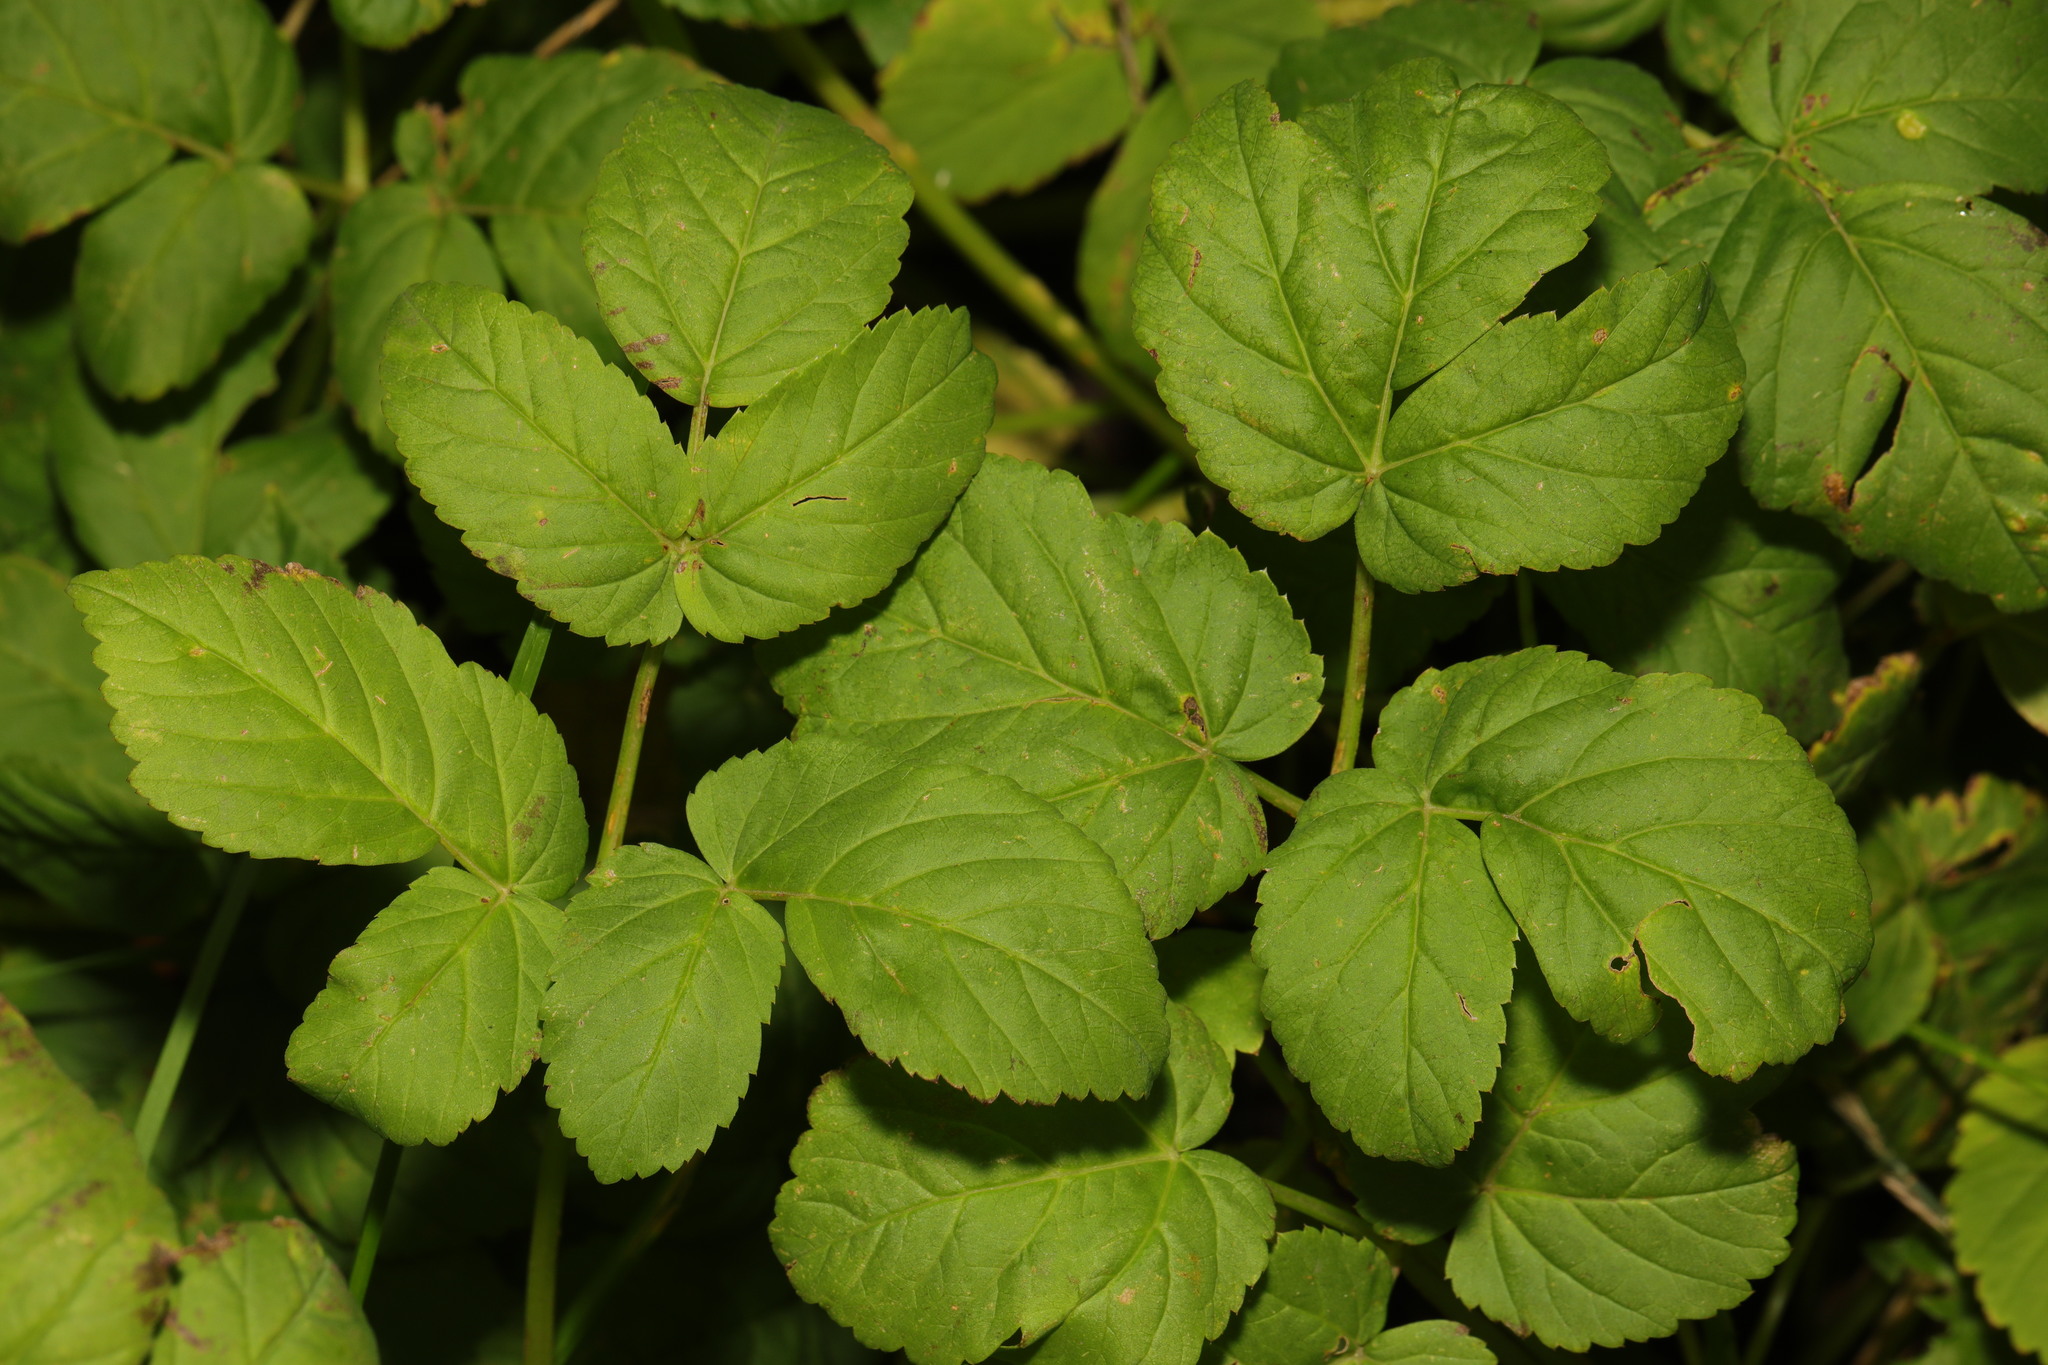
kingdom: Plantae
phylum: Tracheophyta
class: Magnoliopsida
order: Apiales
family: Apiaceae
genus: Aegopodium
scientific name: Aegopodium podagraria
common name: Ground-elder
